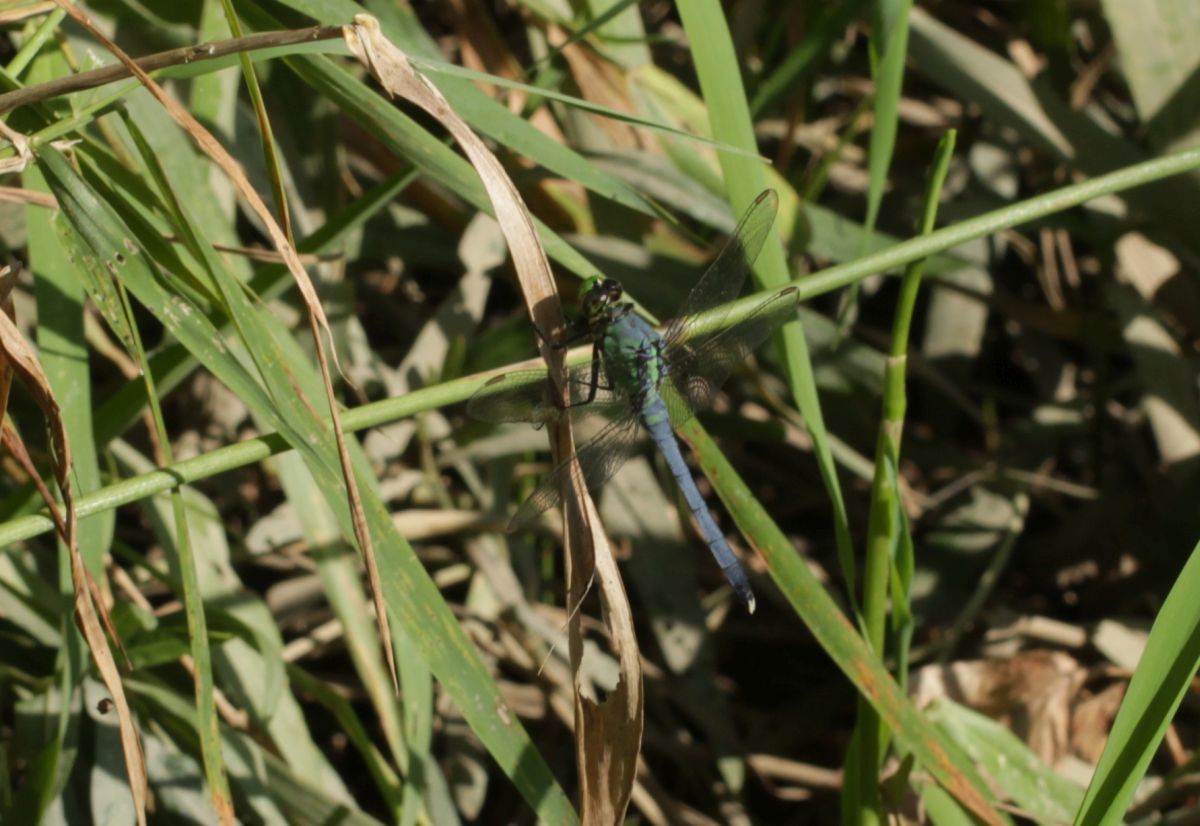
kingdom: Animalia
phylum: Arthropoda
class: Insecta
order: Odonata
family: Libellulidae
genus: Erythemis
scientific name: Erythemis simplicicollis
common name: Eastern pondhawk
